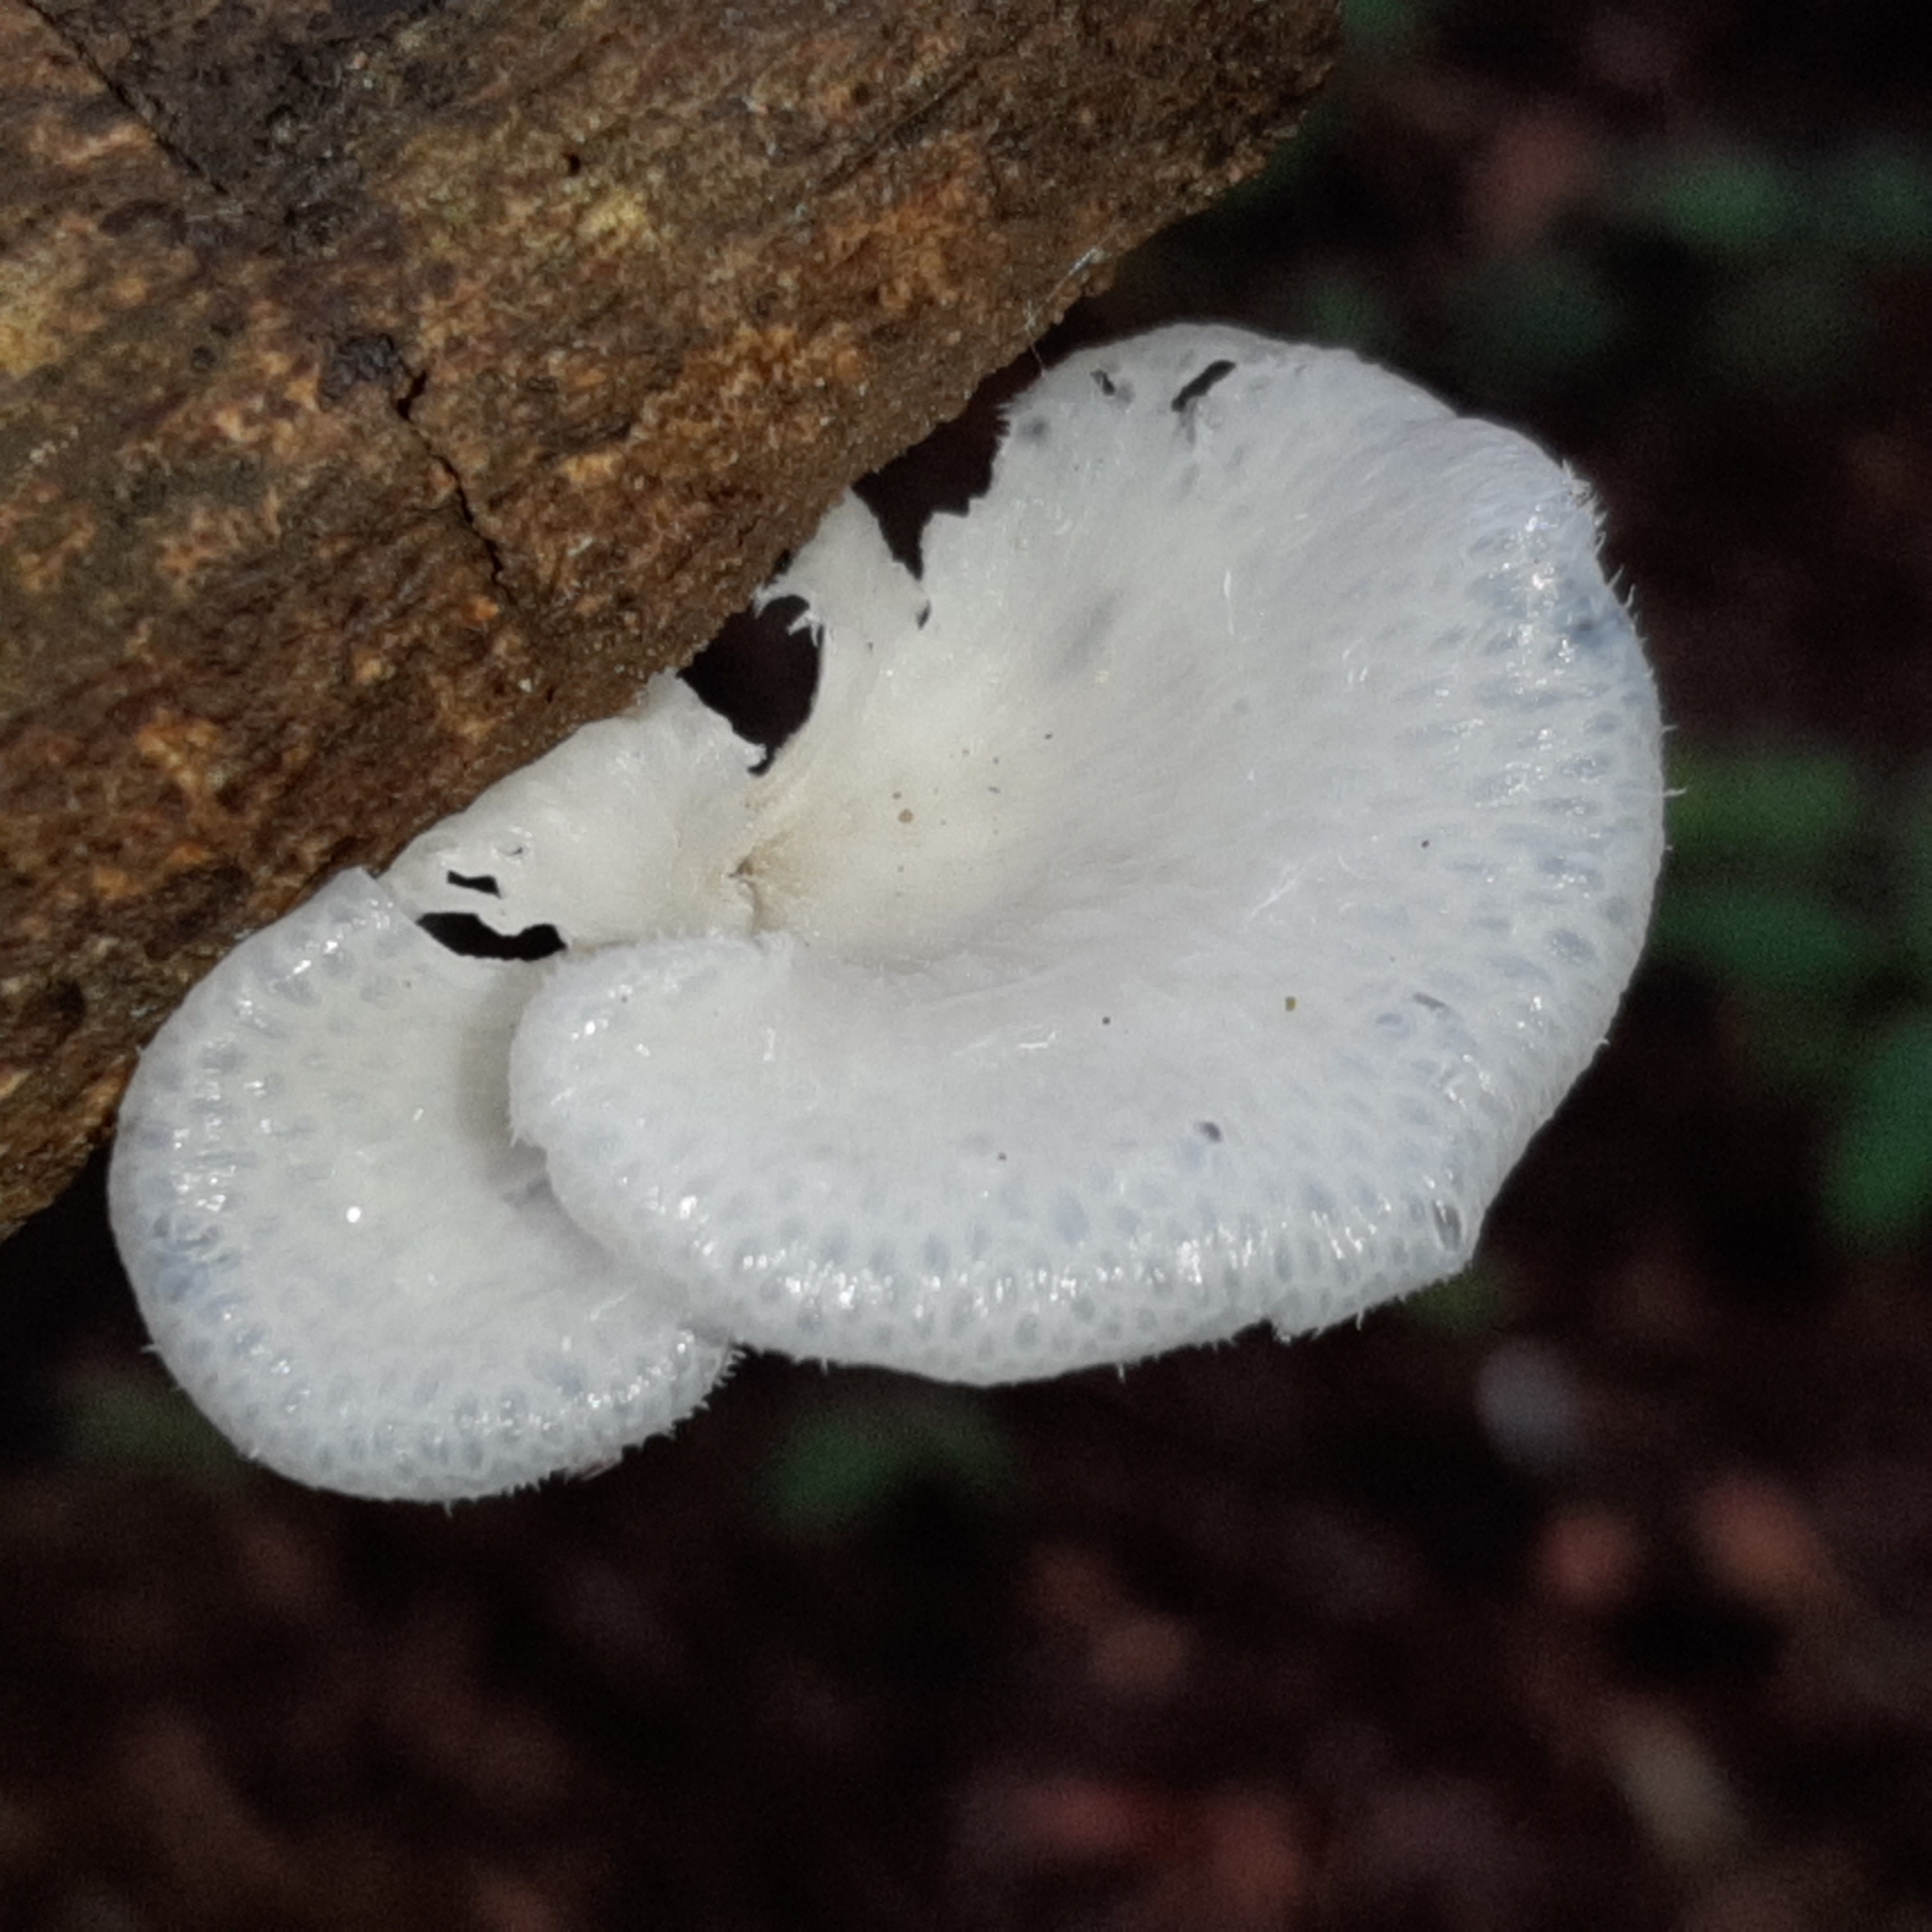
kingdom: Fungi
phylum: Basidiomycota
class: Agaricomycetes
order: Polyporales
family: Polyporaceae
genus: Favolus
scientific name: Favolus tenuiculus
